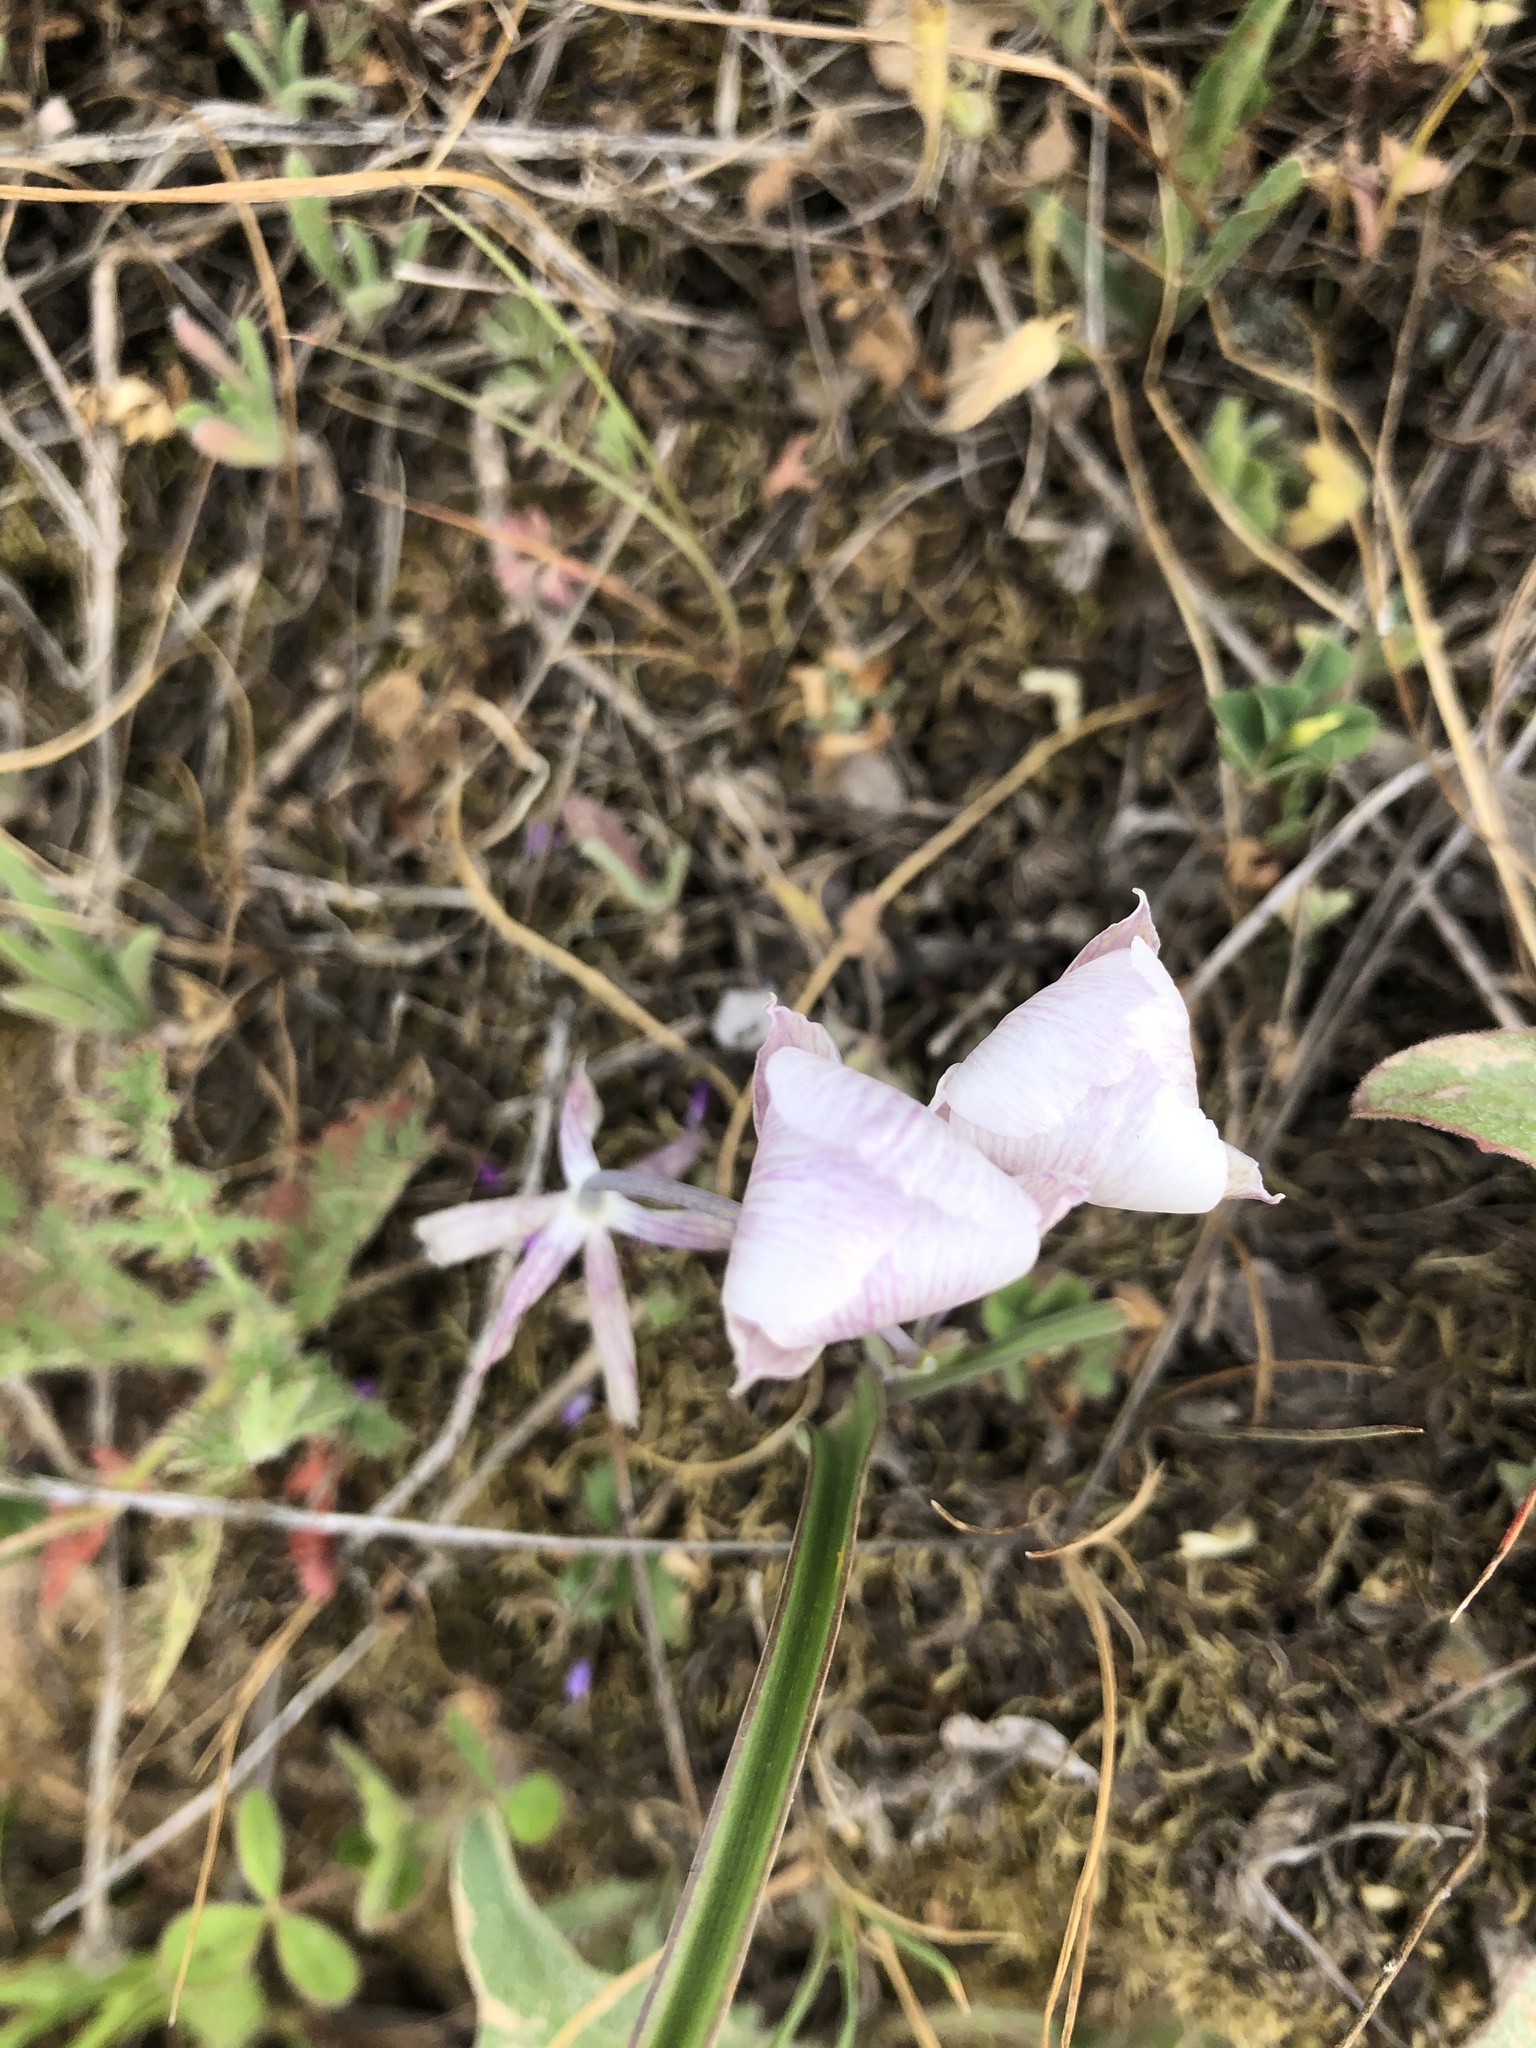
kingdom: Plantae
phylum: Tracheophyta
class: Liliopsida
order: Liliales
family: Liliaceae
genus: Calochortus
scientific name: Calochortus umbellatus
